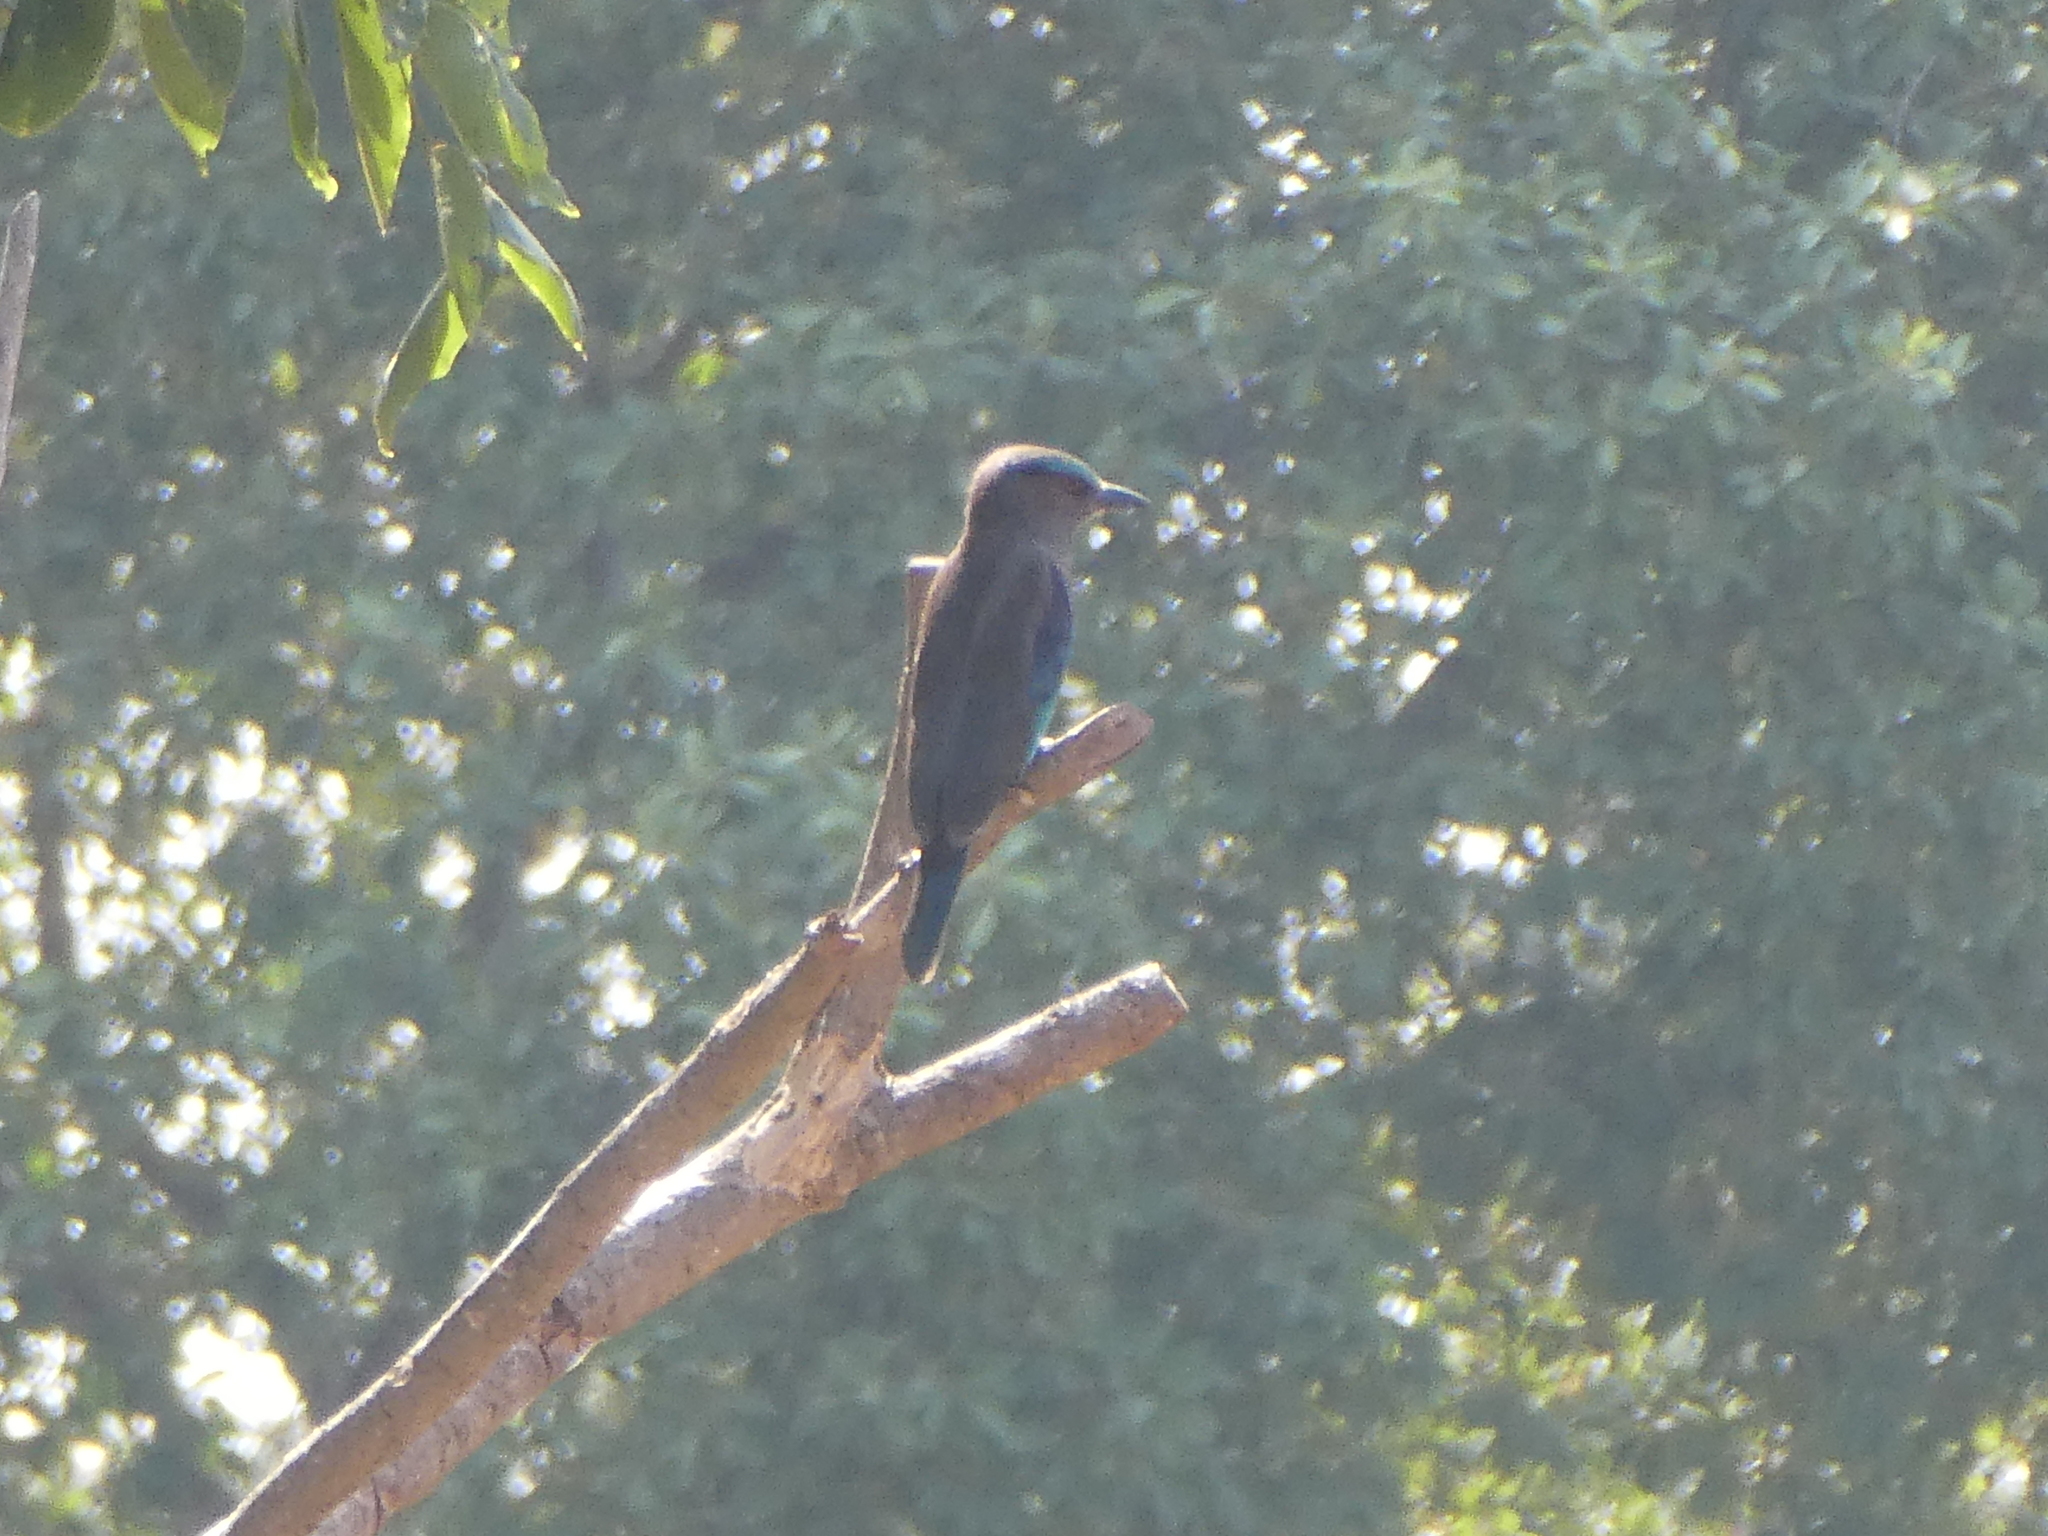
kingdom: Animalia
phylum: Chordata
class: Aves
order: Coraciiformes
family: Coraciidae
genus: Coracias
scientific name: Coracias affinis
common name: Indochinese roller
